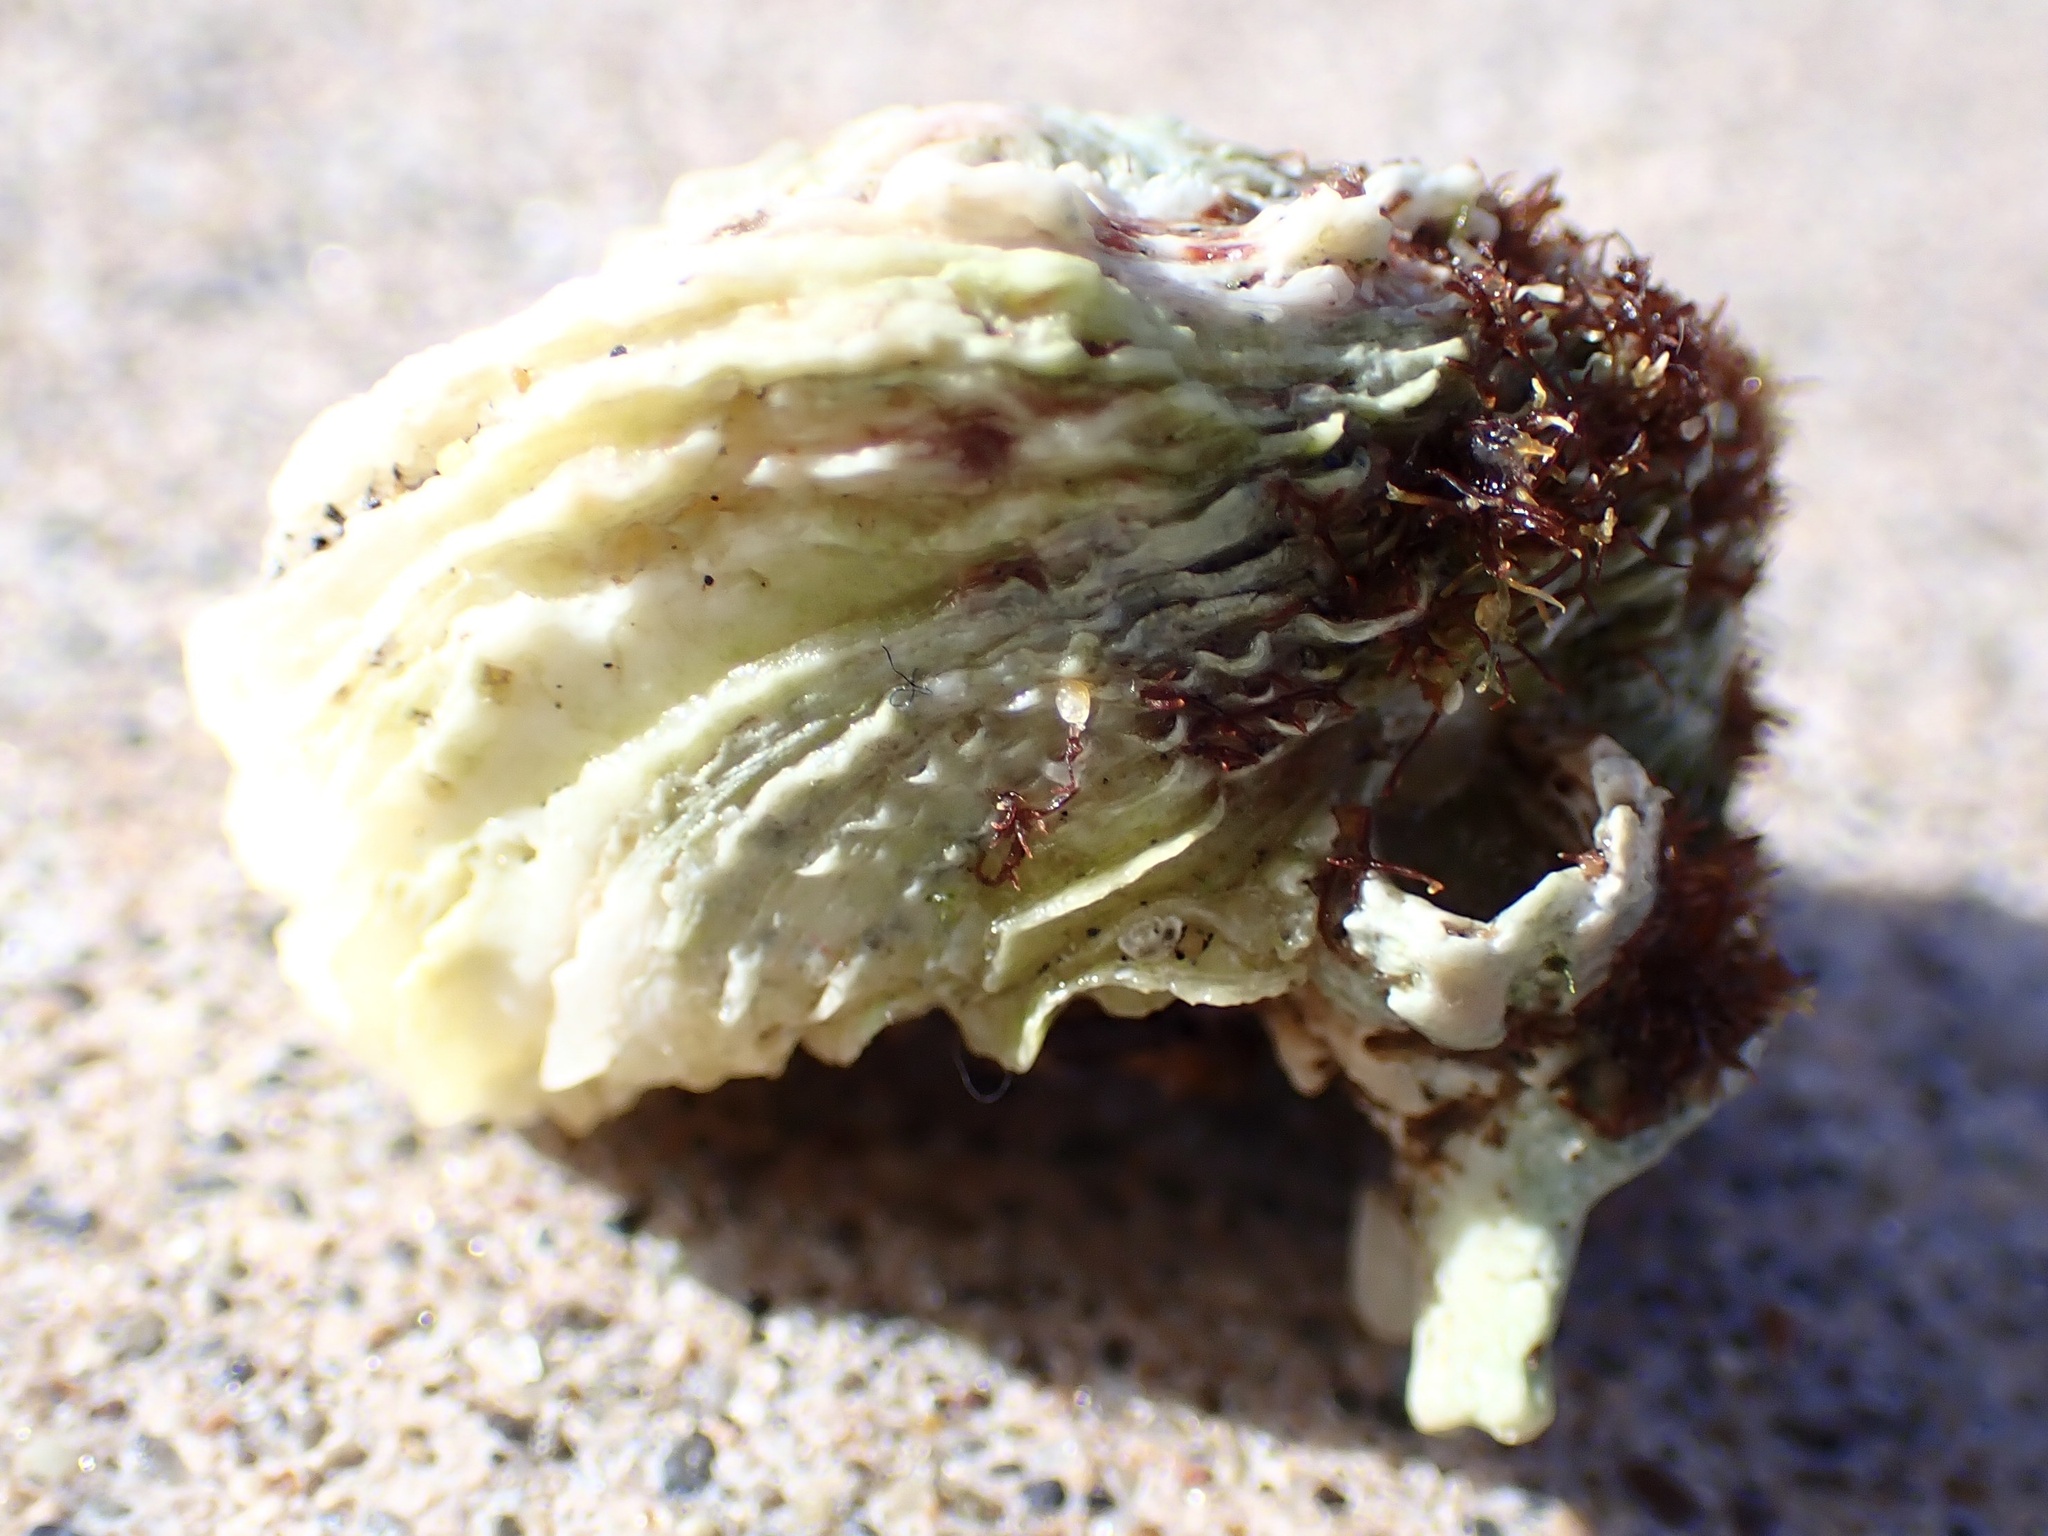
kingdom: Animalia
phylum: Mollusca
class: Bivalvia
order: Venerida
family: Chamidae
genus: Pseudochama
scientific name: Pseudochama exogyra
